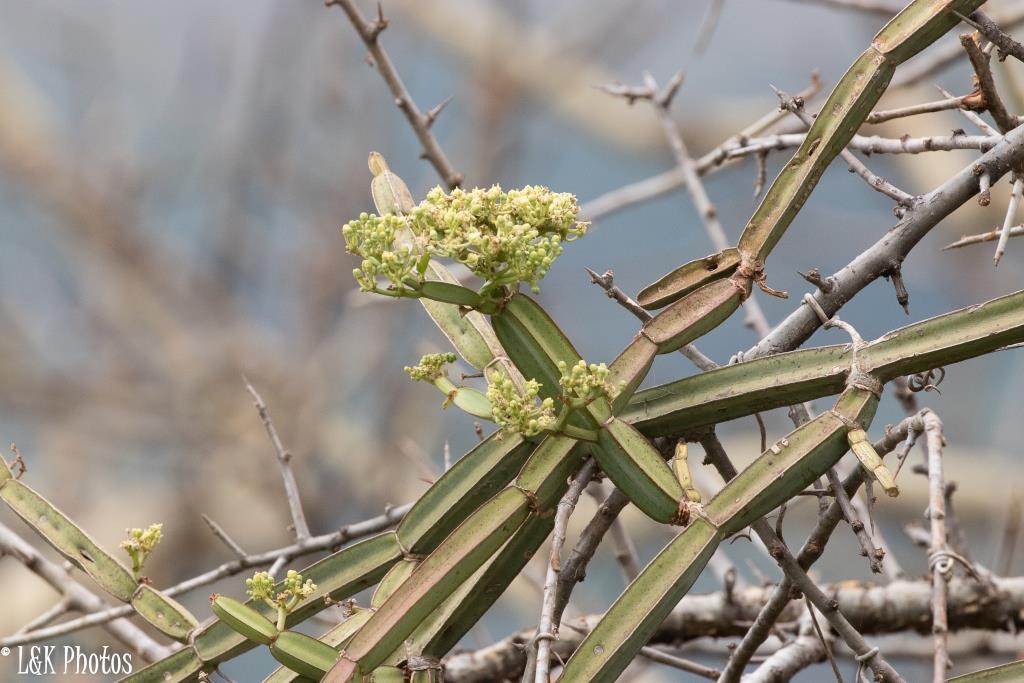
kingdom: Plantae
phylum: Tracheophyta
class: Magnoliopsida
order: Vitales
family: Vitaceae
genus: Cissus
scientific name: Cissus quadrangularis
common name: Veldt-grape
